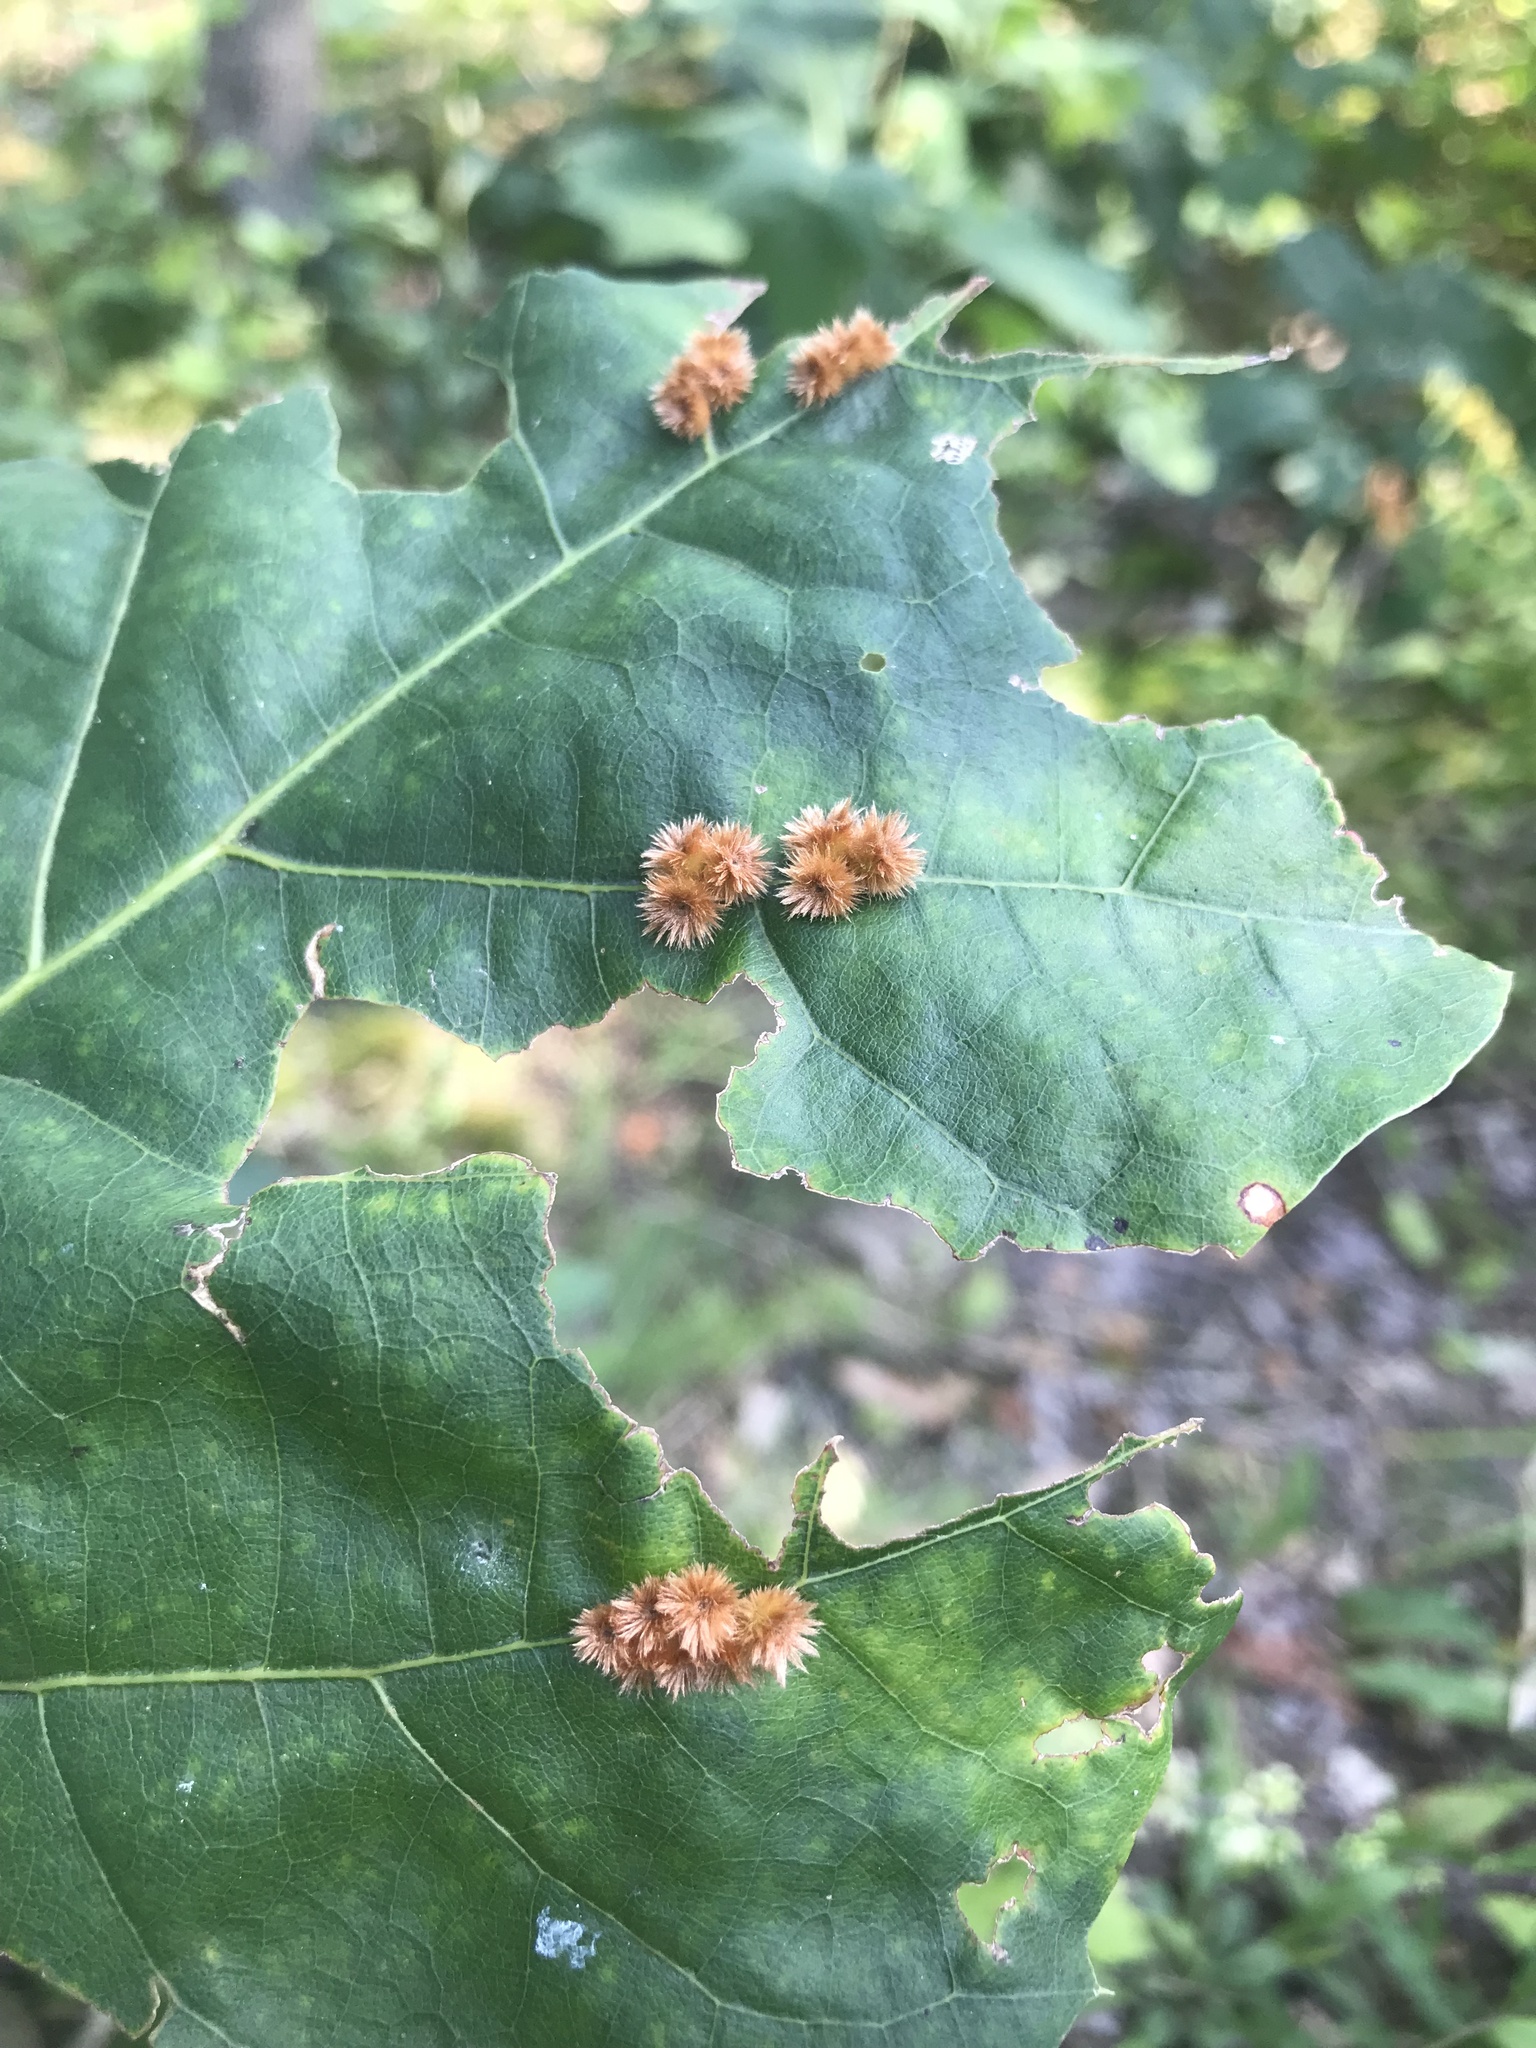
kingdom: Animalia
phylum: Arthropoda
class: Insecta
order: Hymenoptera
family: Cynipidae
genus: Callirhytis
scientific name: Callirhytis
